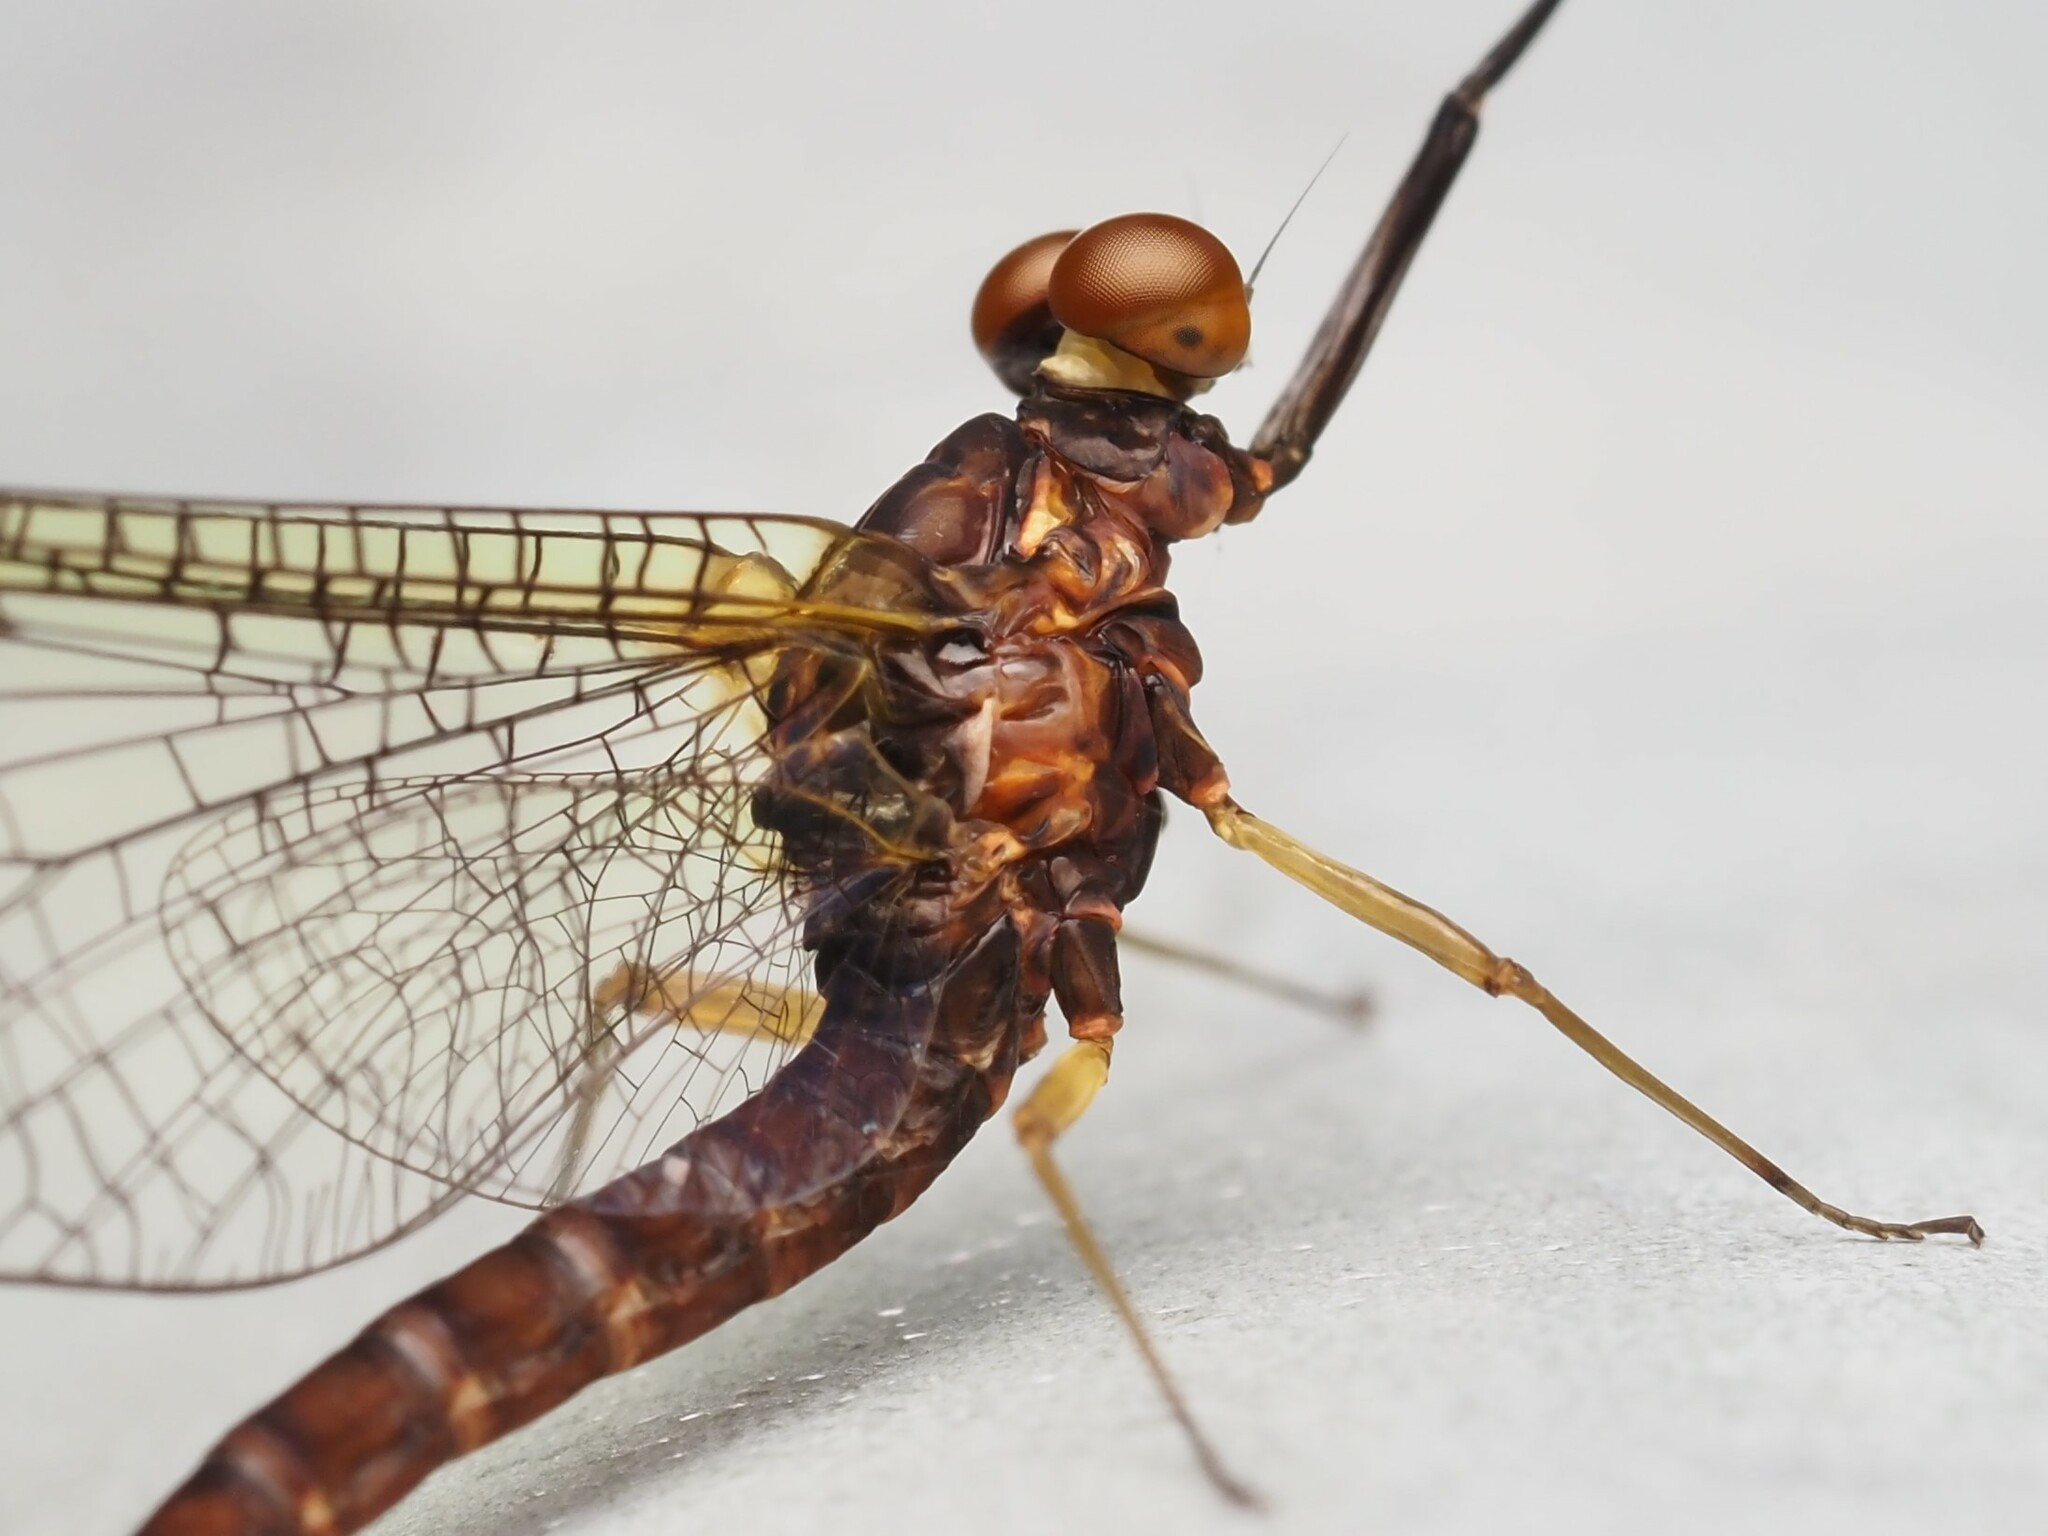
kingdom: Animalia
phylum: Arthropoda
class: Insecta
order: Ephemeroptera
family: Coloburiscidae
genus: Coloburiscus
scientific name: Coloburiscus humeralis
